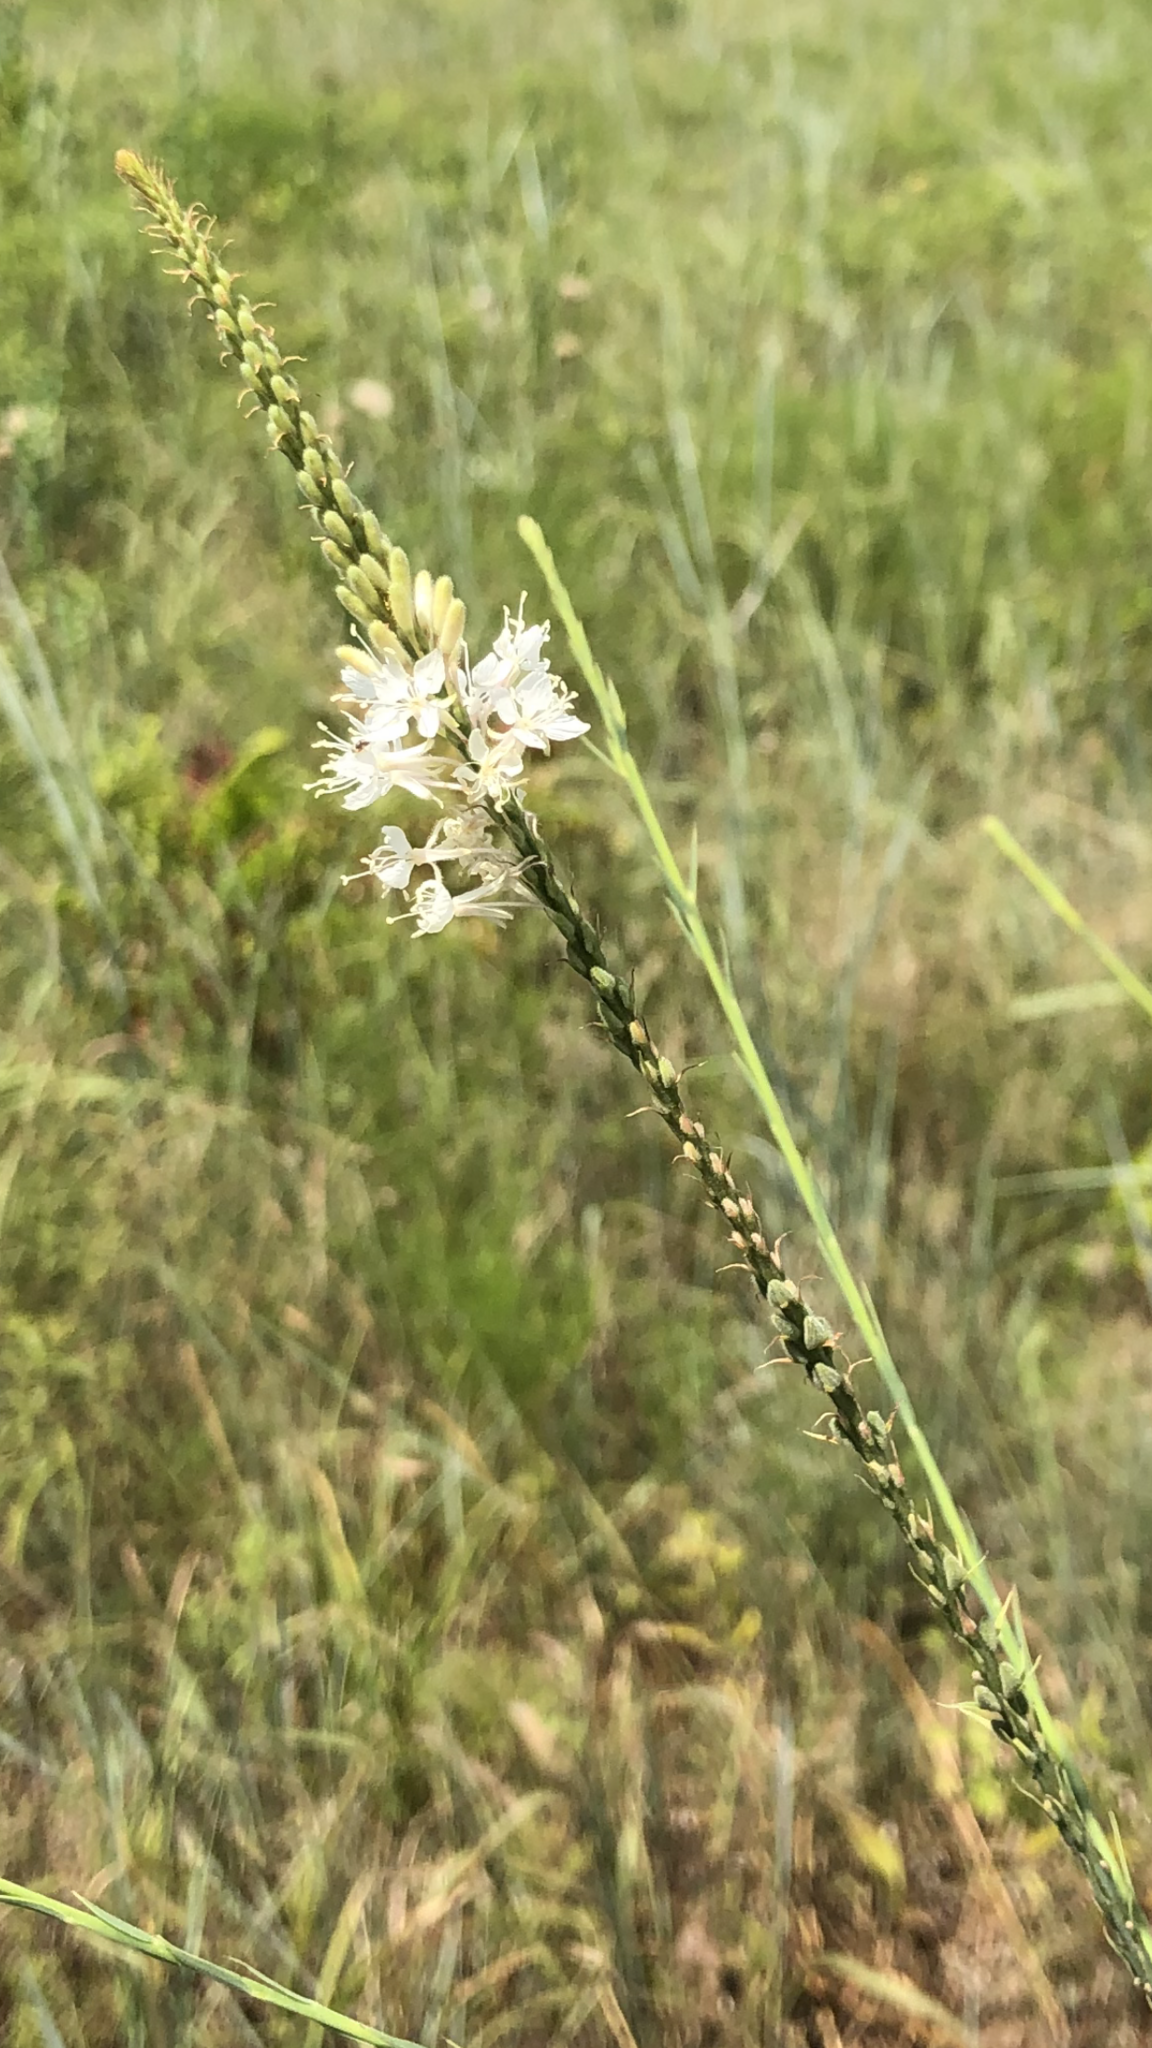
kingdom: Plantae
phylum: Tracheophyta
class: Magnoliopsida
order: Myrtales
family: Onagraceae
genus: Oenothera
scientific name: Oenothera glaucifolia
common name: False gaura
